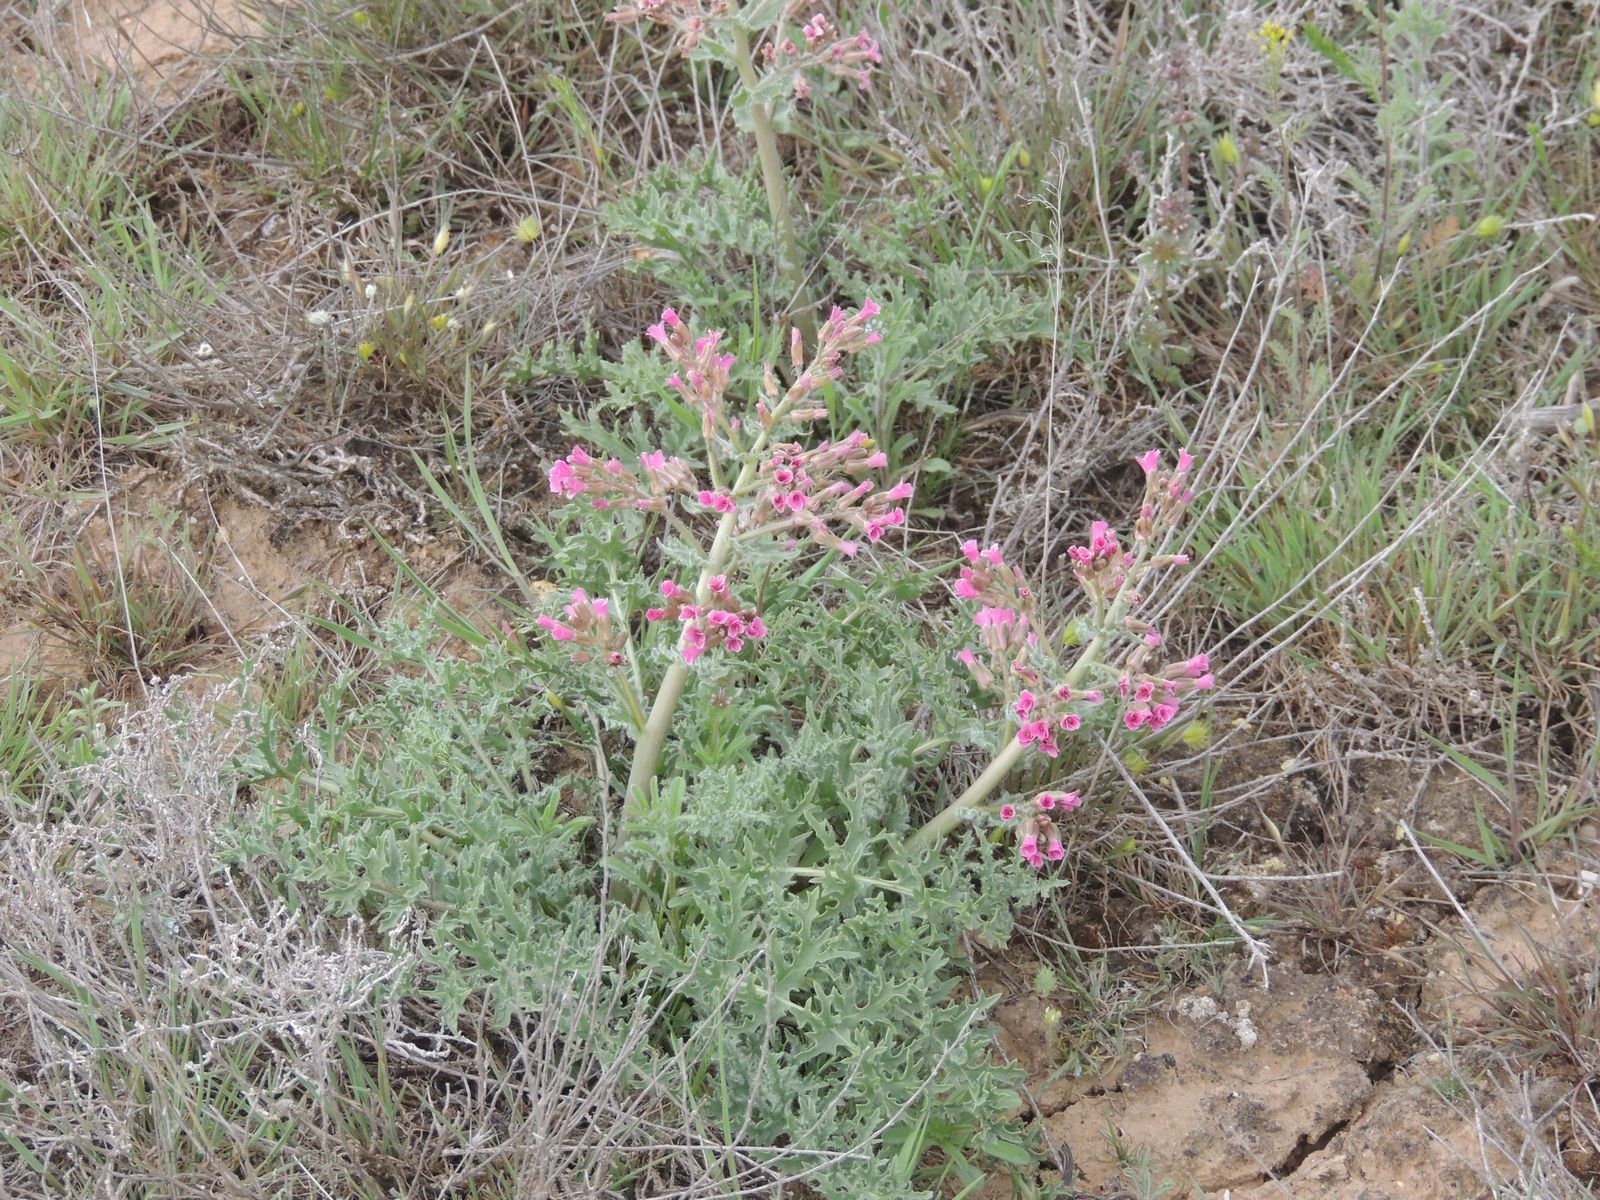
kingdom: Plantae
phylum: Tracheophyta
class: Magnoliopsida
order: Brassicales
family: Brassicaceae
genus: Megacarpaea
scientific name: Megacarpaea megalocarpa
